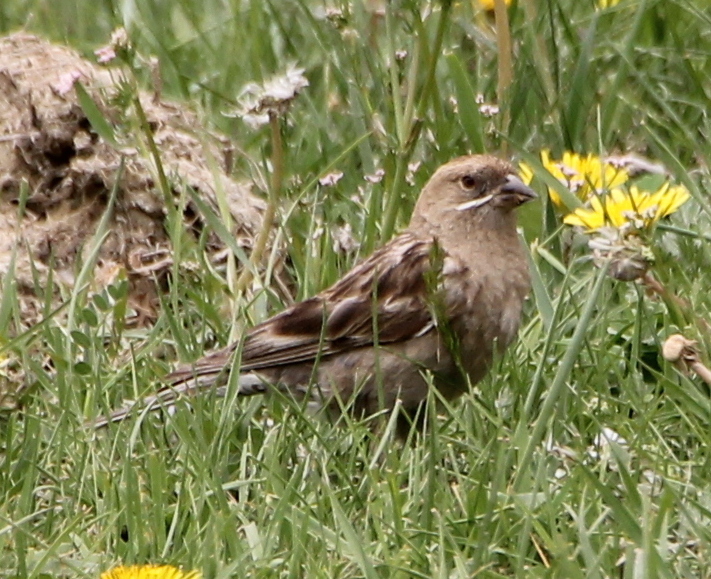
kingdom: Animalia
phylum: Chordata
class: Aves
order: Passeriformes
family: Fringillidae
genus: Leucosticte
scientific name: Leucosticte nemoricola
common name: Plain mountain finch
